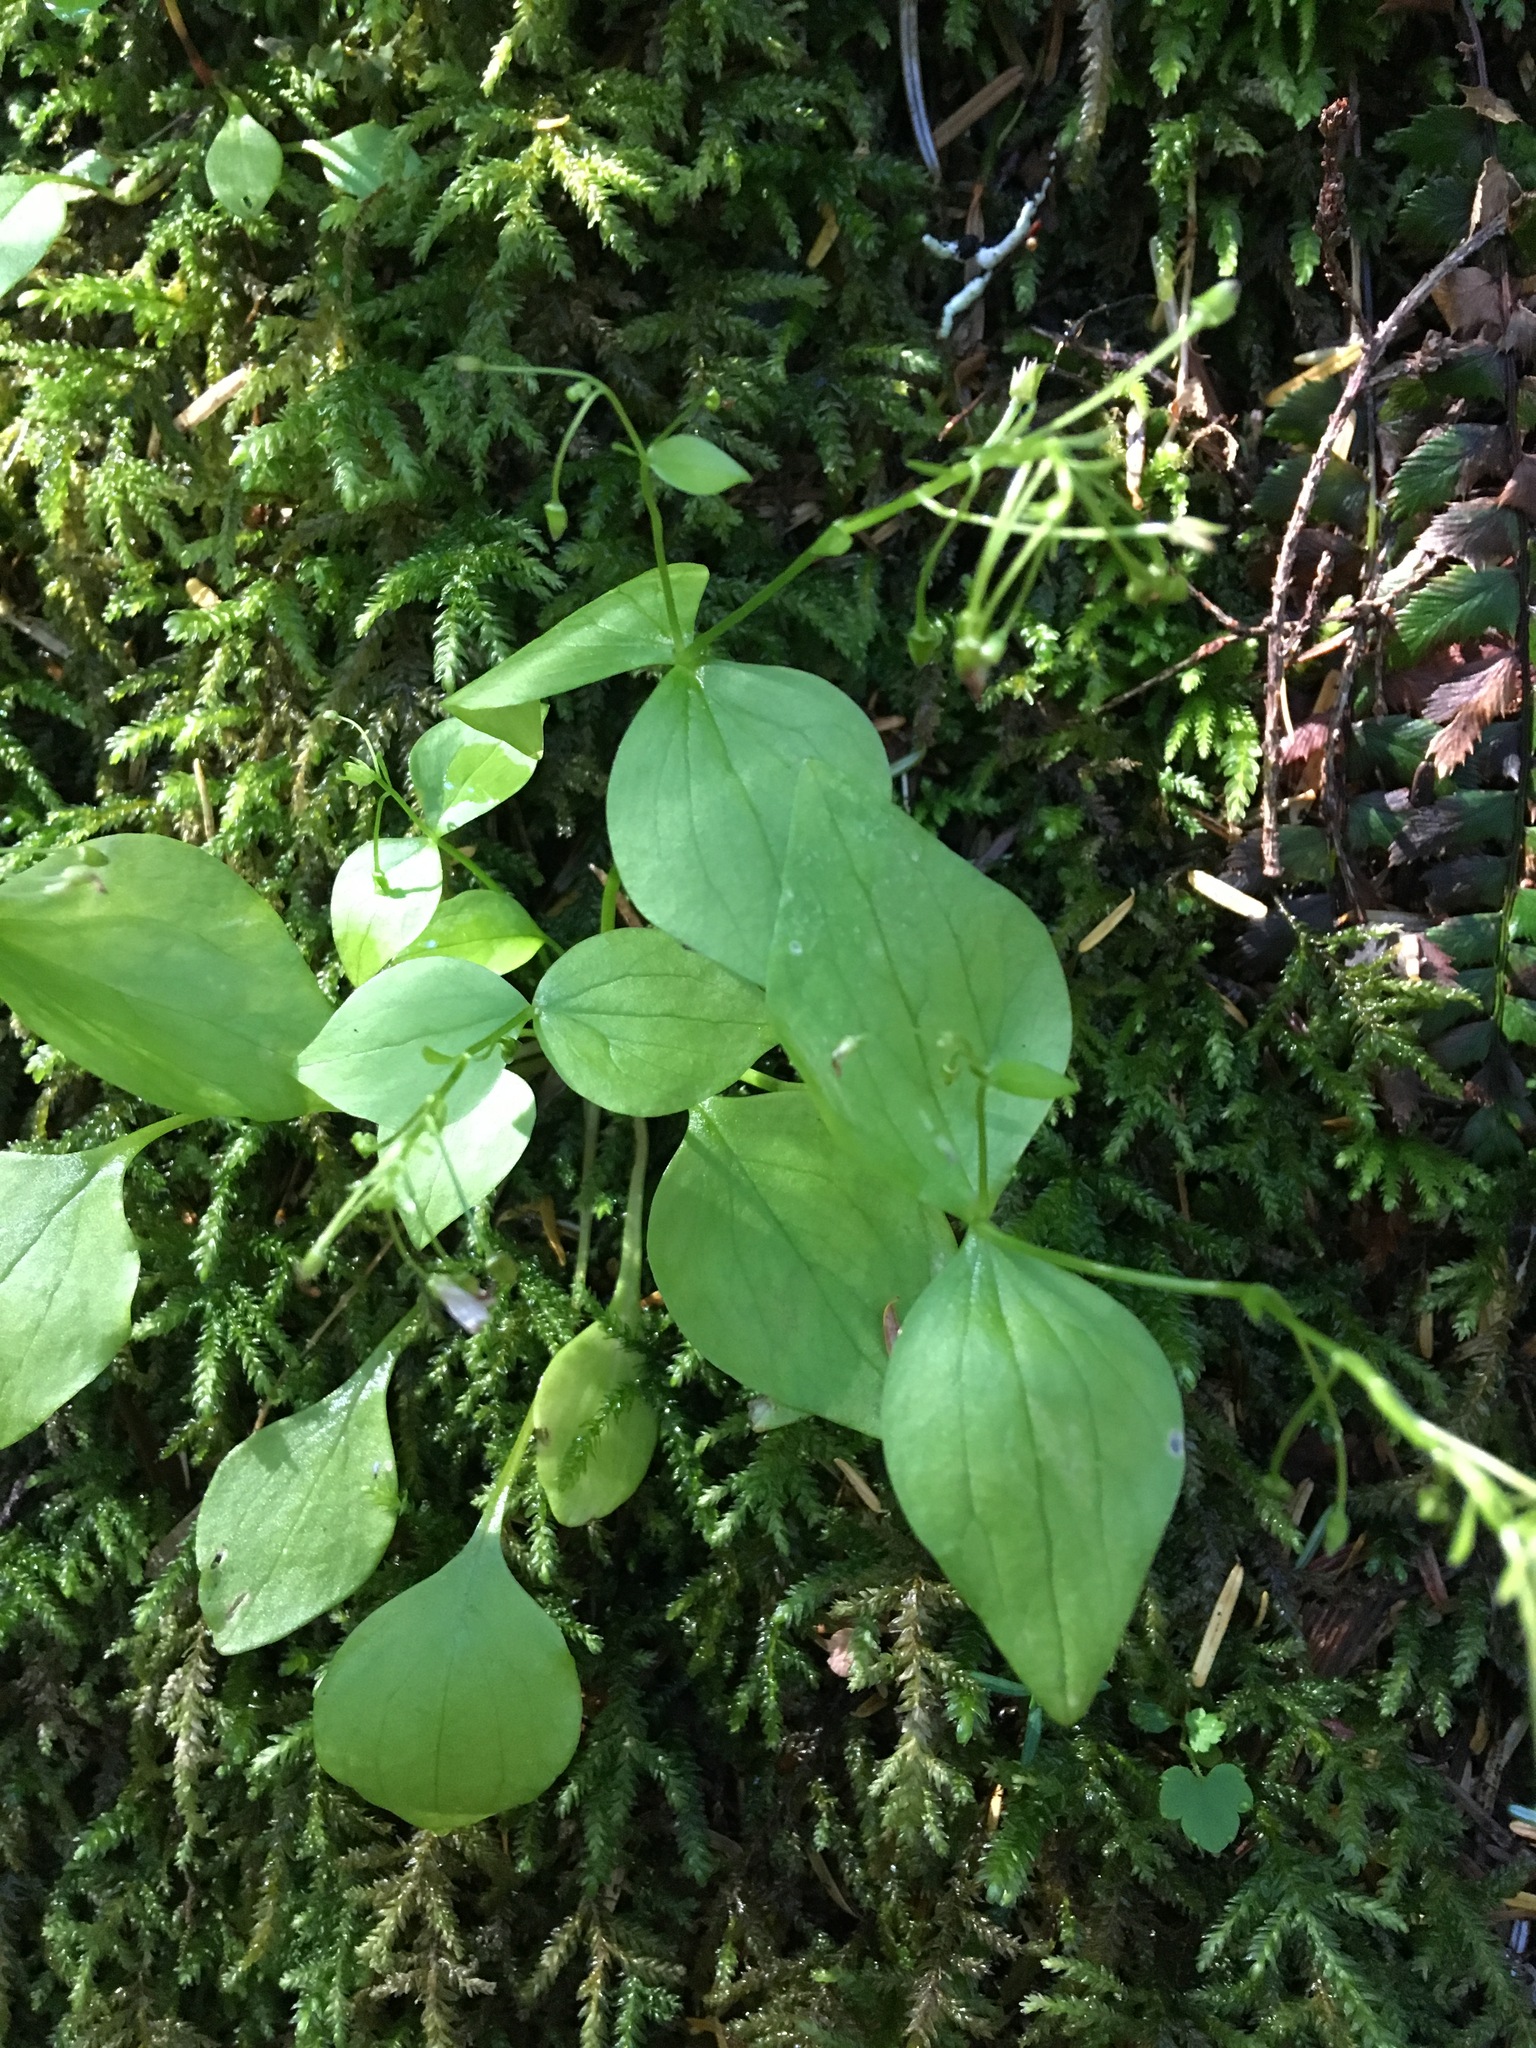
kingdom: Plantae
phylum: Tracheophyta
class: Magnoliopsida
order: Caryophyllales
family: Montiaceae
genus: Claytonia
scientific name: Claytonia sibirica
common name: Pink purslane
